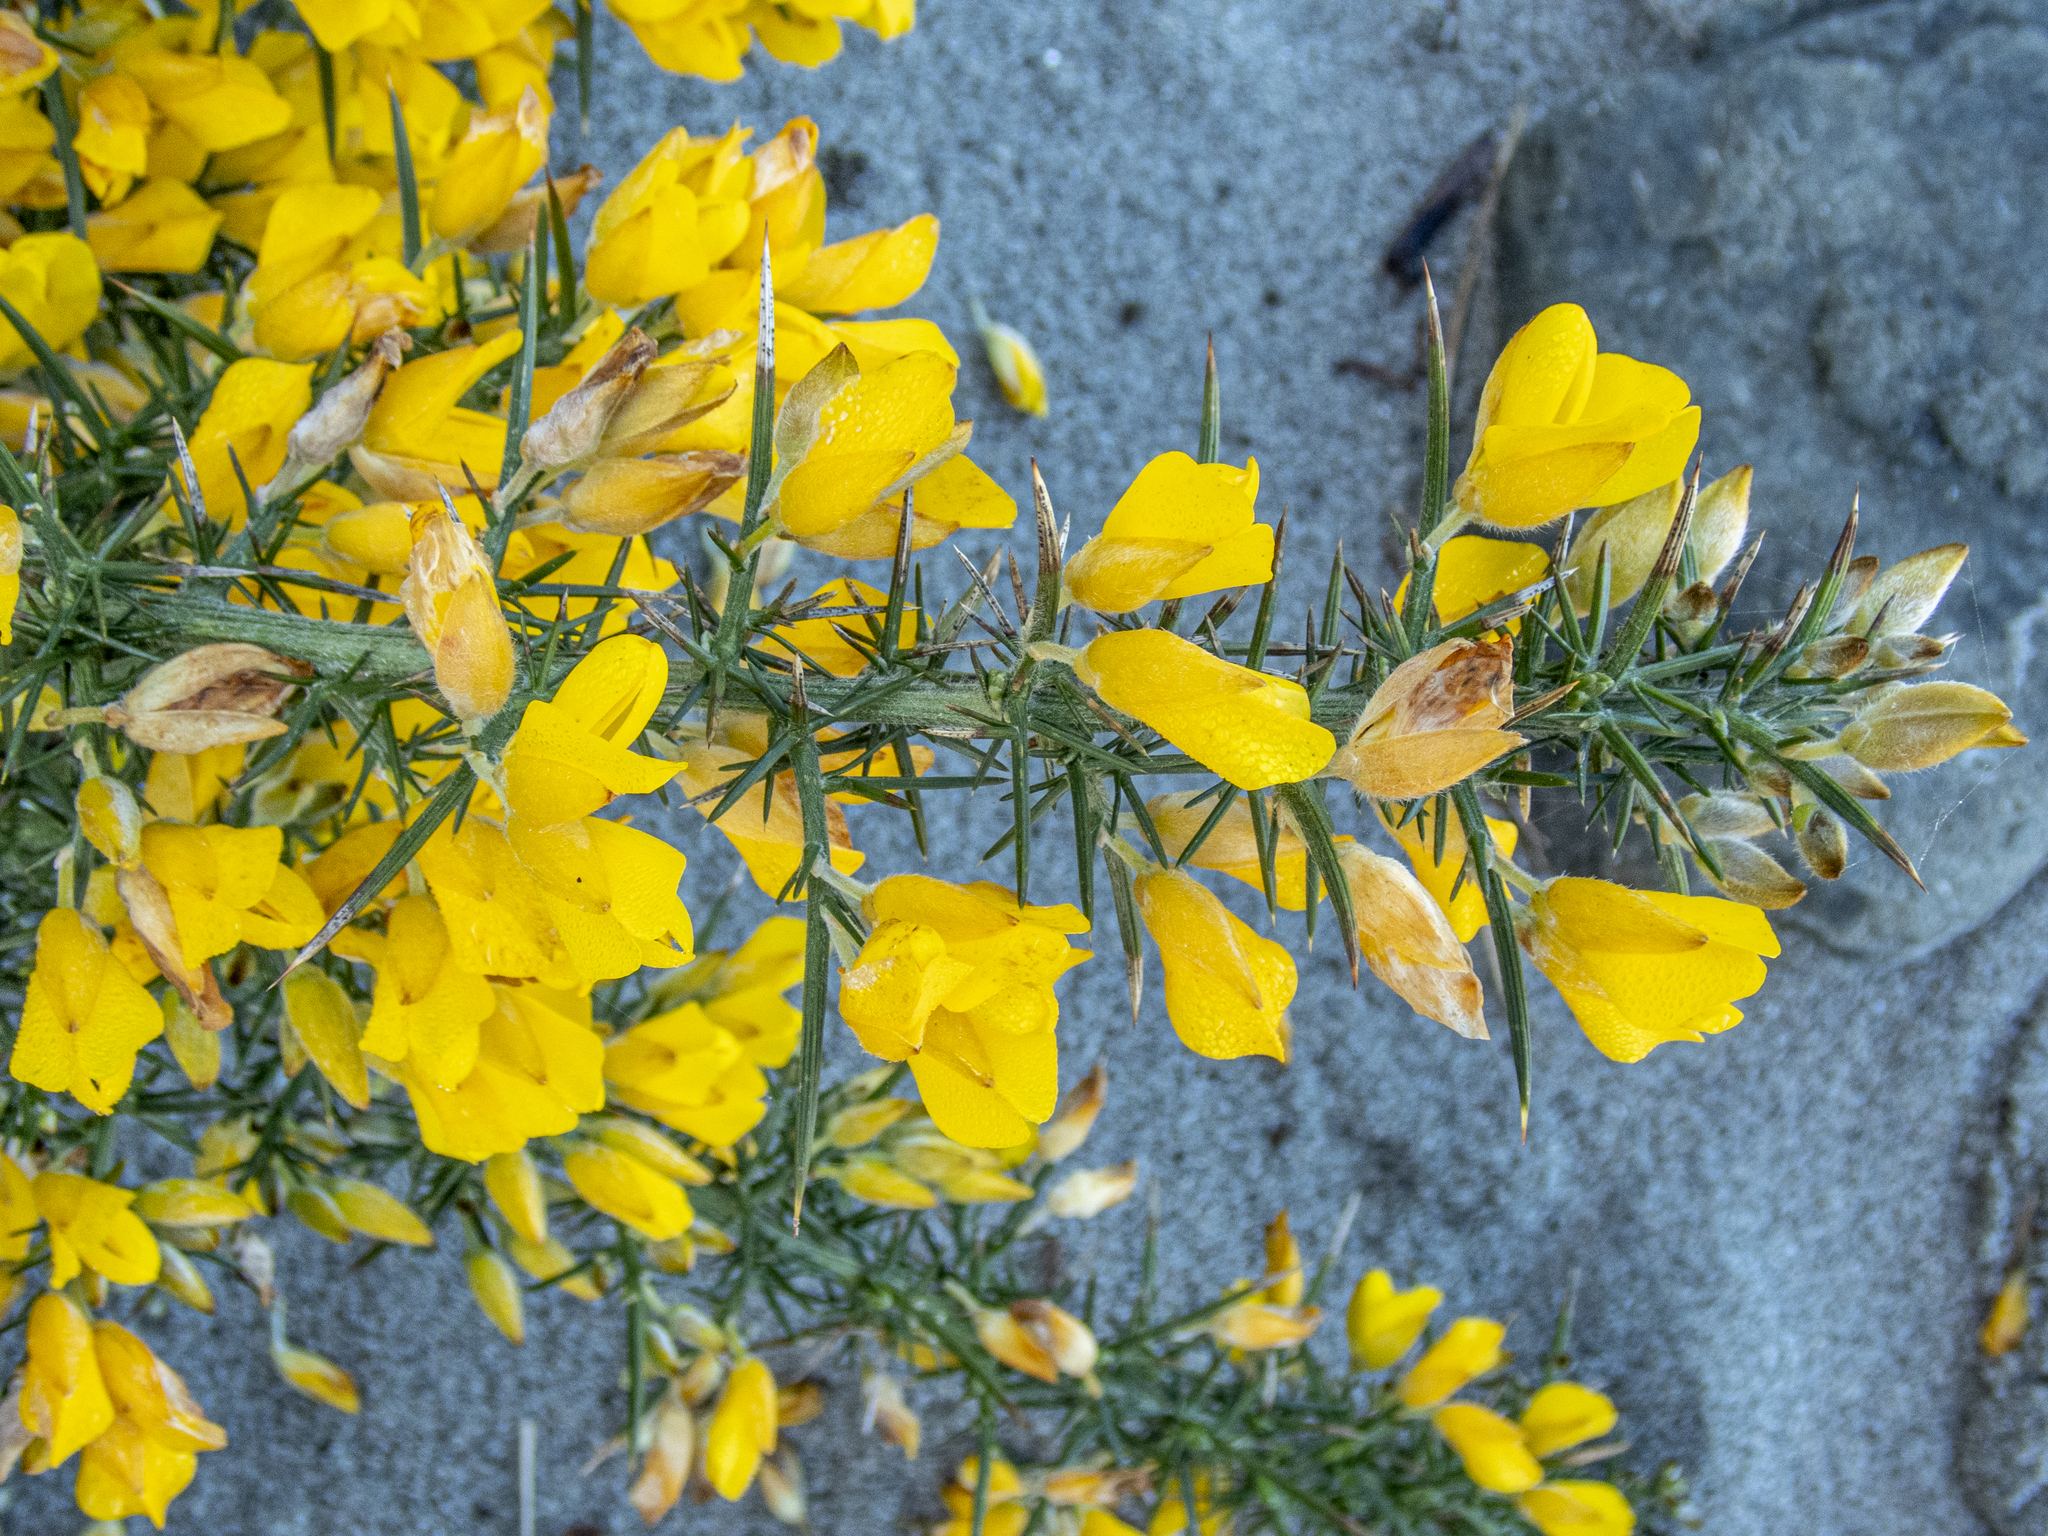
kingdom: Plantae
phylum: Tracheophyta
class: Magnoliopsida
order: Fabales
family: Fabaceae
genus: Ulex
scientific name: Ulex europaeus
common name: Common gorse
